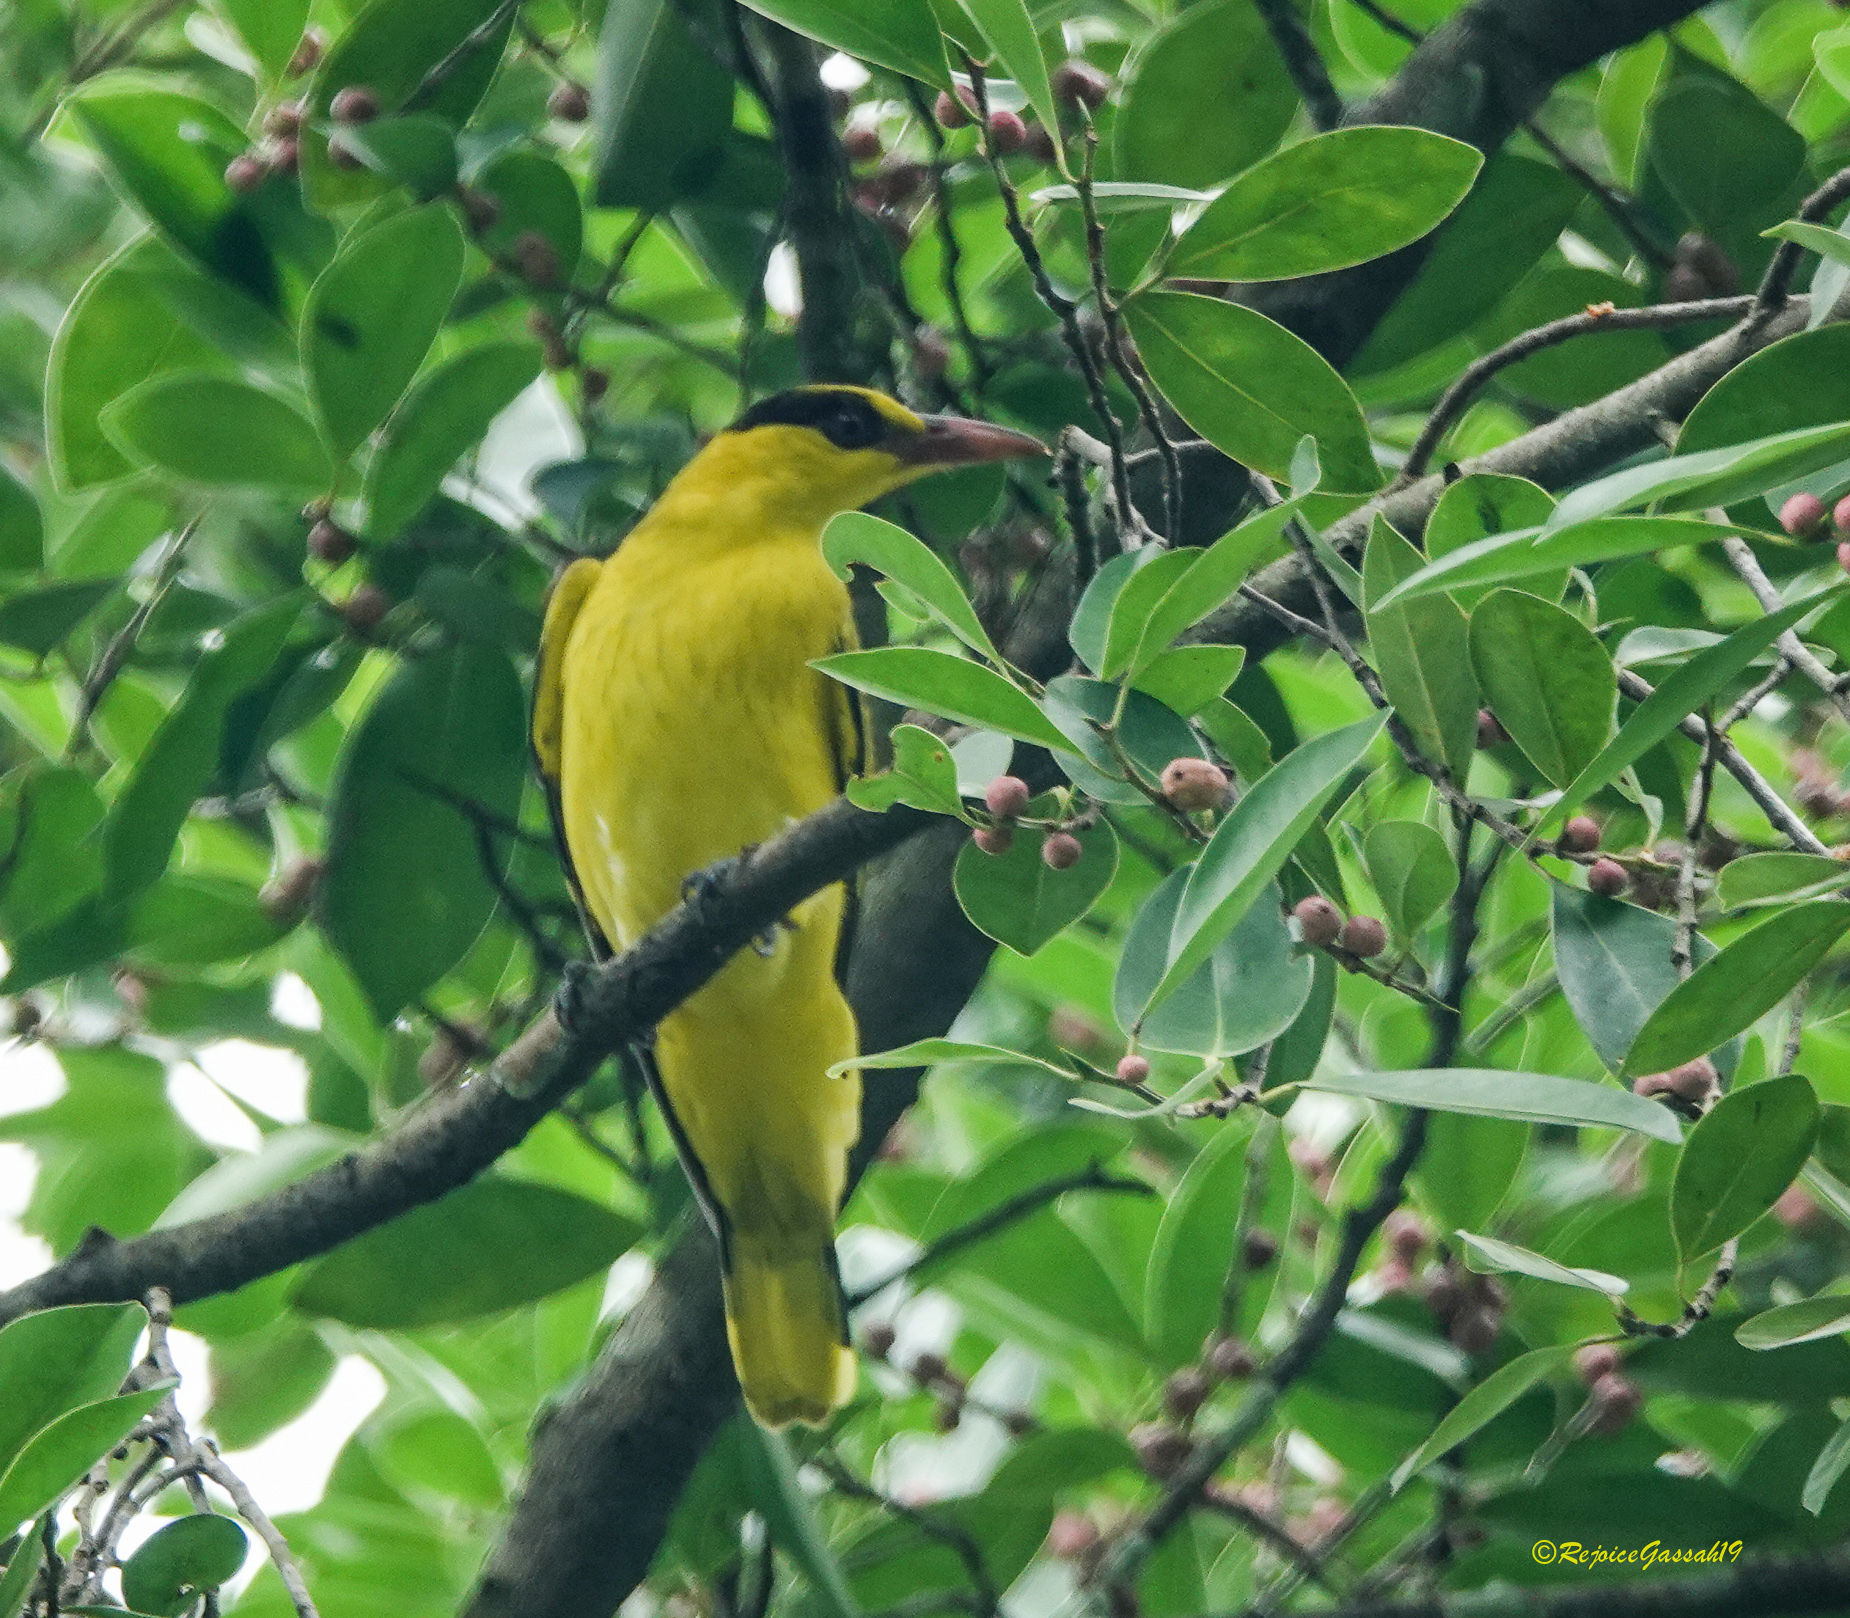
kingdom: Animalia
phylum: Chordata
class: Aves
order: Passeriformes
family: Oriolidae
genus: Oriolus
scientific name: Oriolus chinensis
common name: Black-naped oriole
